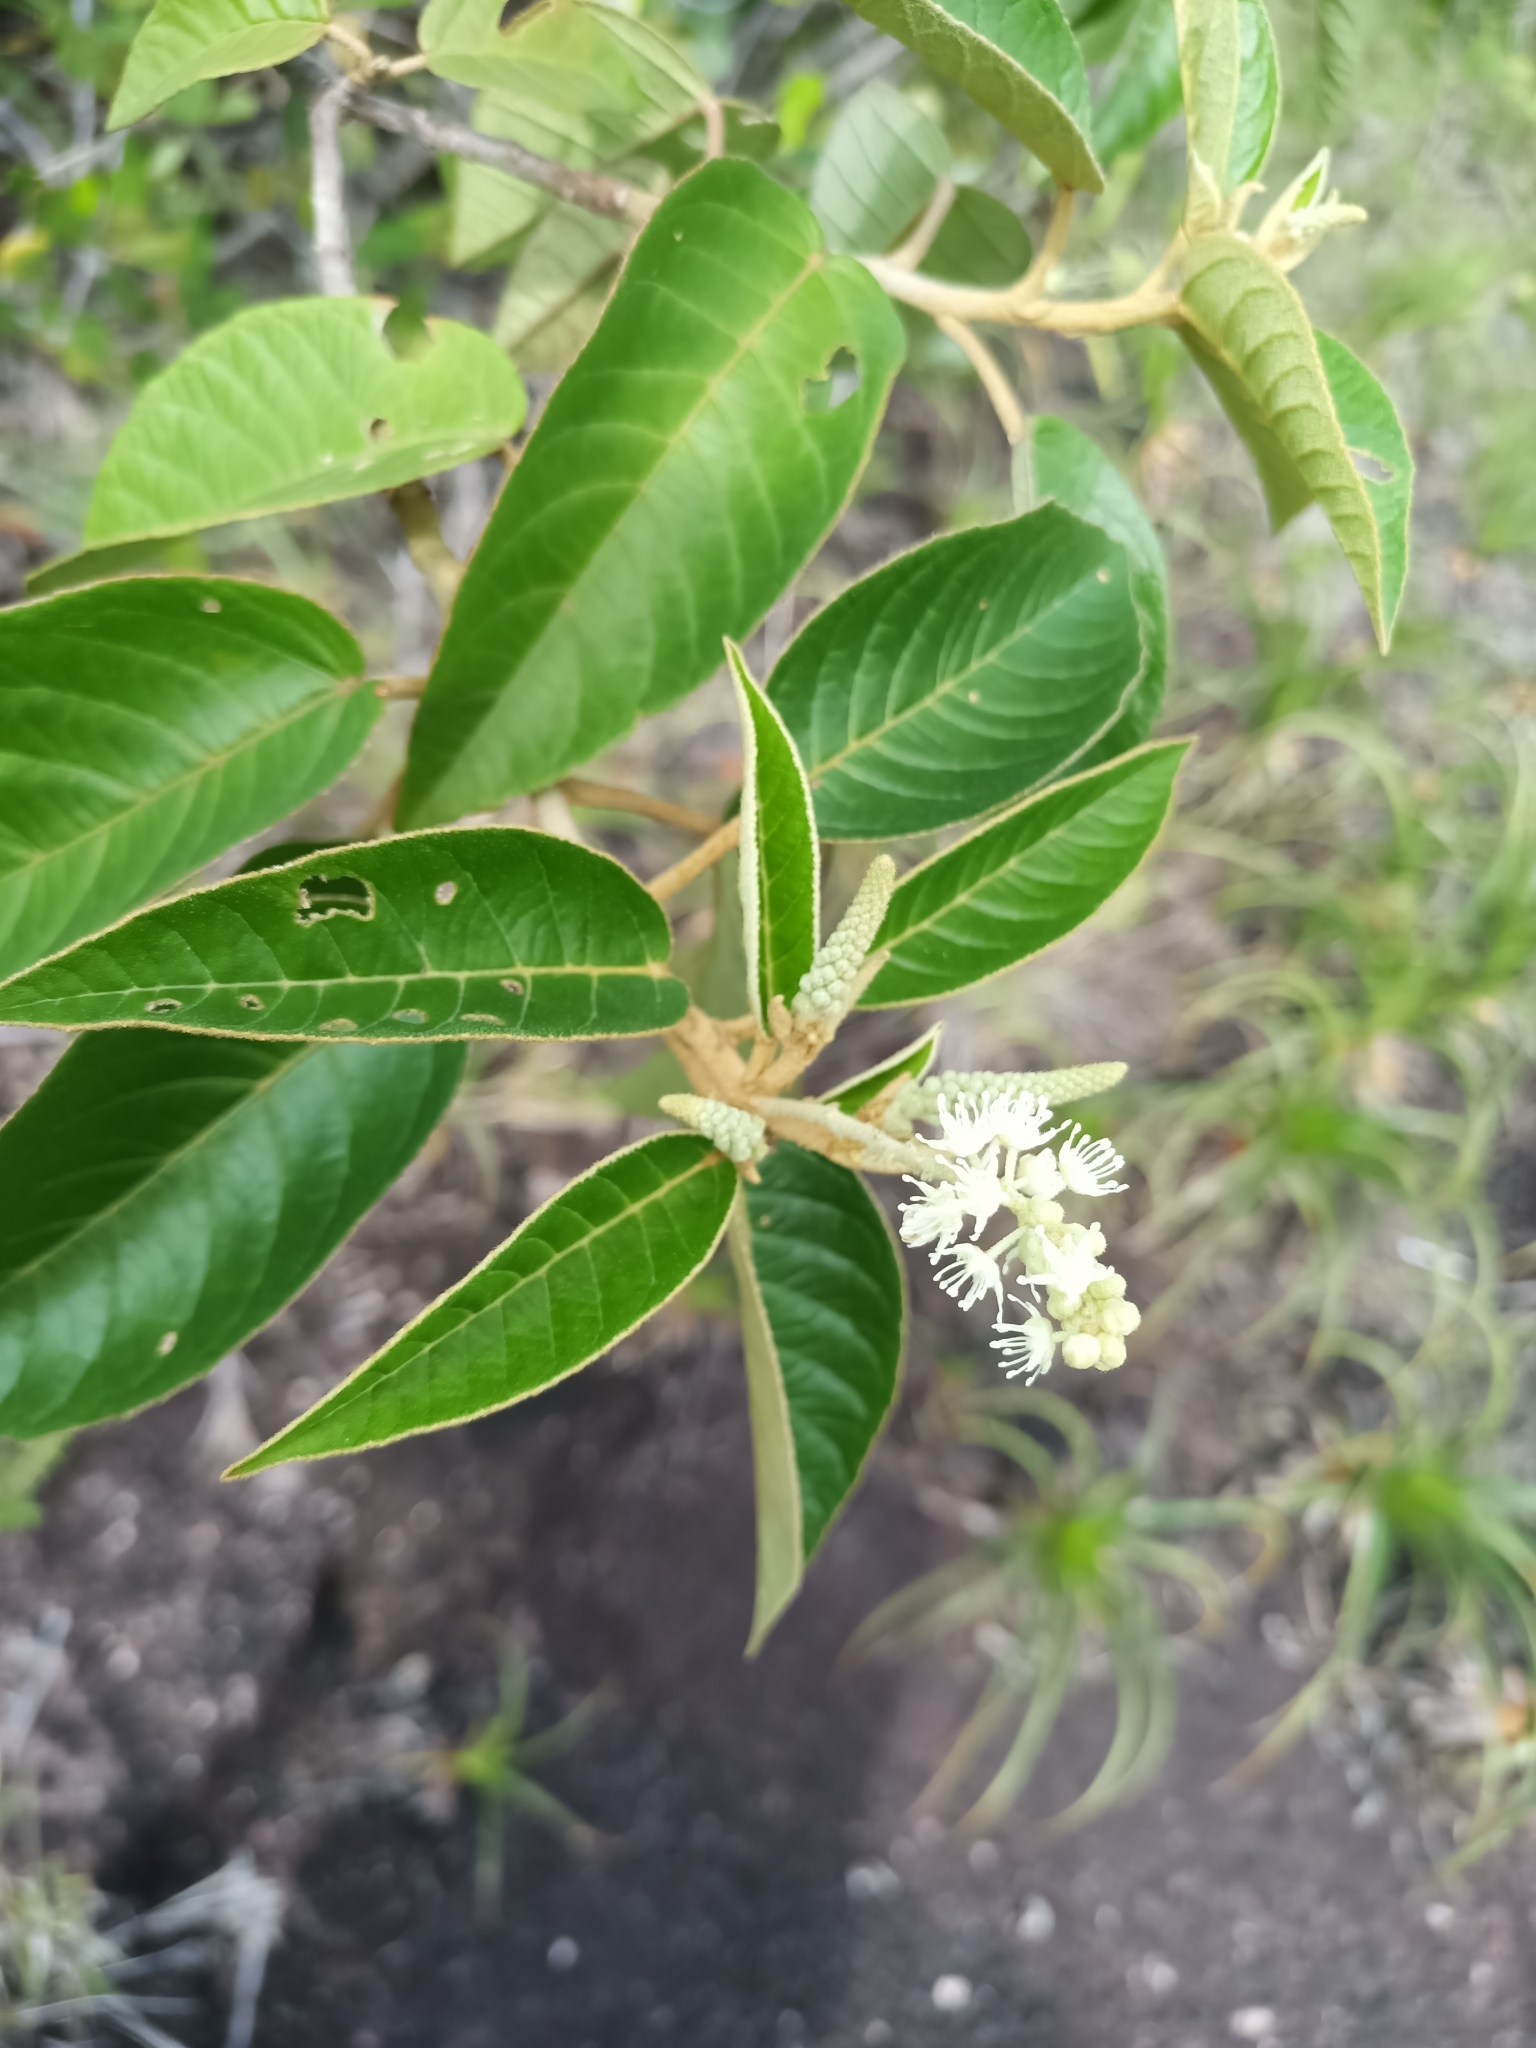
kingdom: Plantae
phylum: Tracheophyta
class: Magnoliopsida
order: Malpighiales
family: Euphorbiaceae
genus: Croton
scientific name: Croton hostmannii
